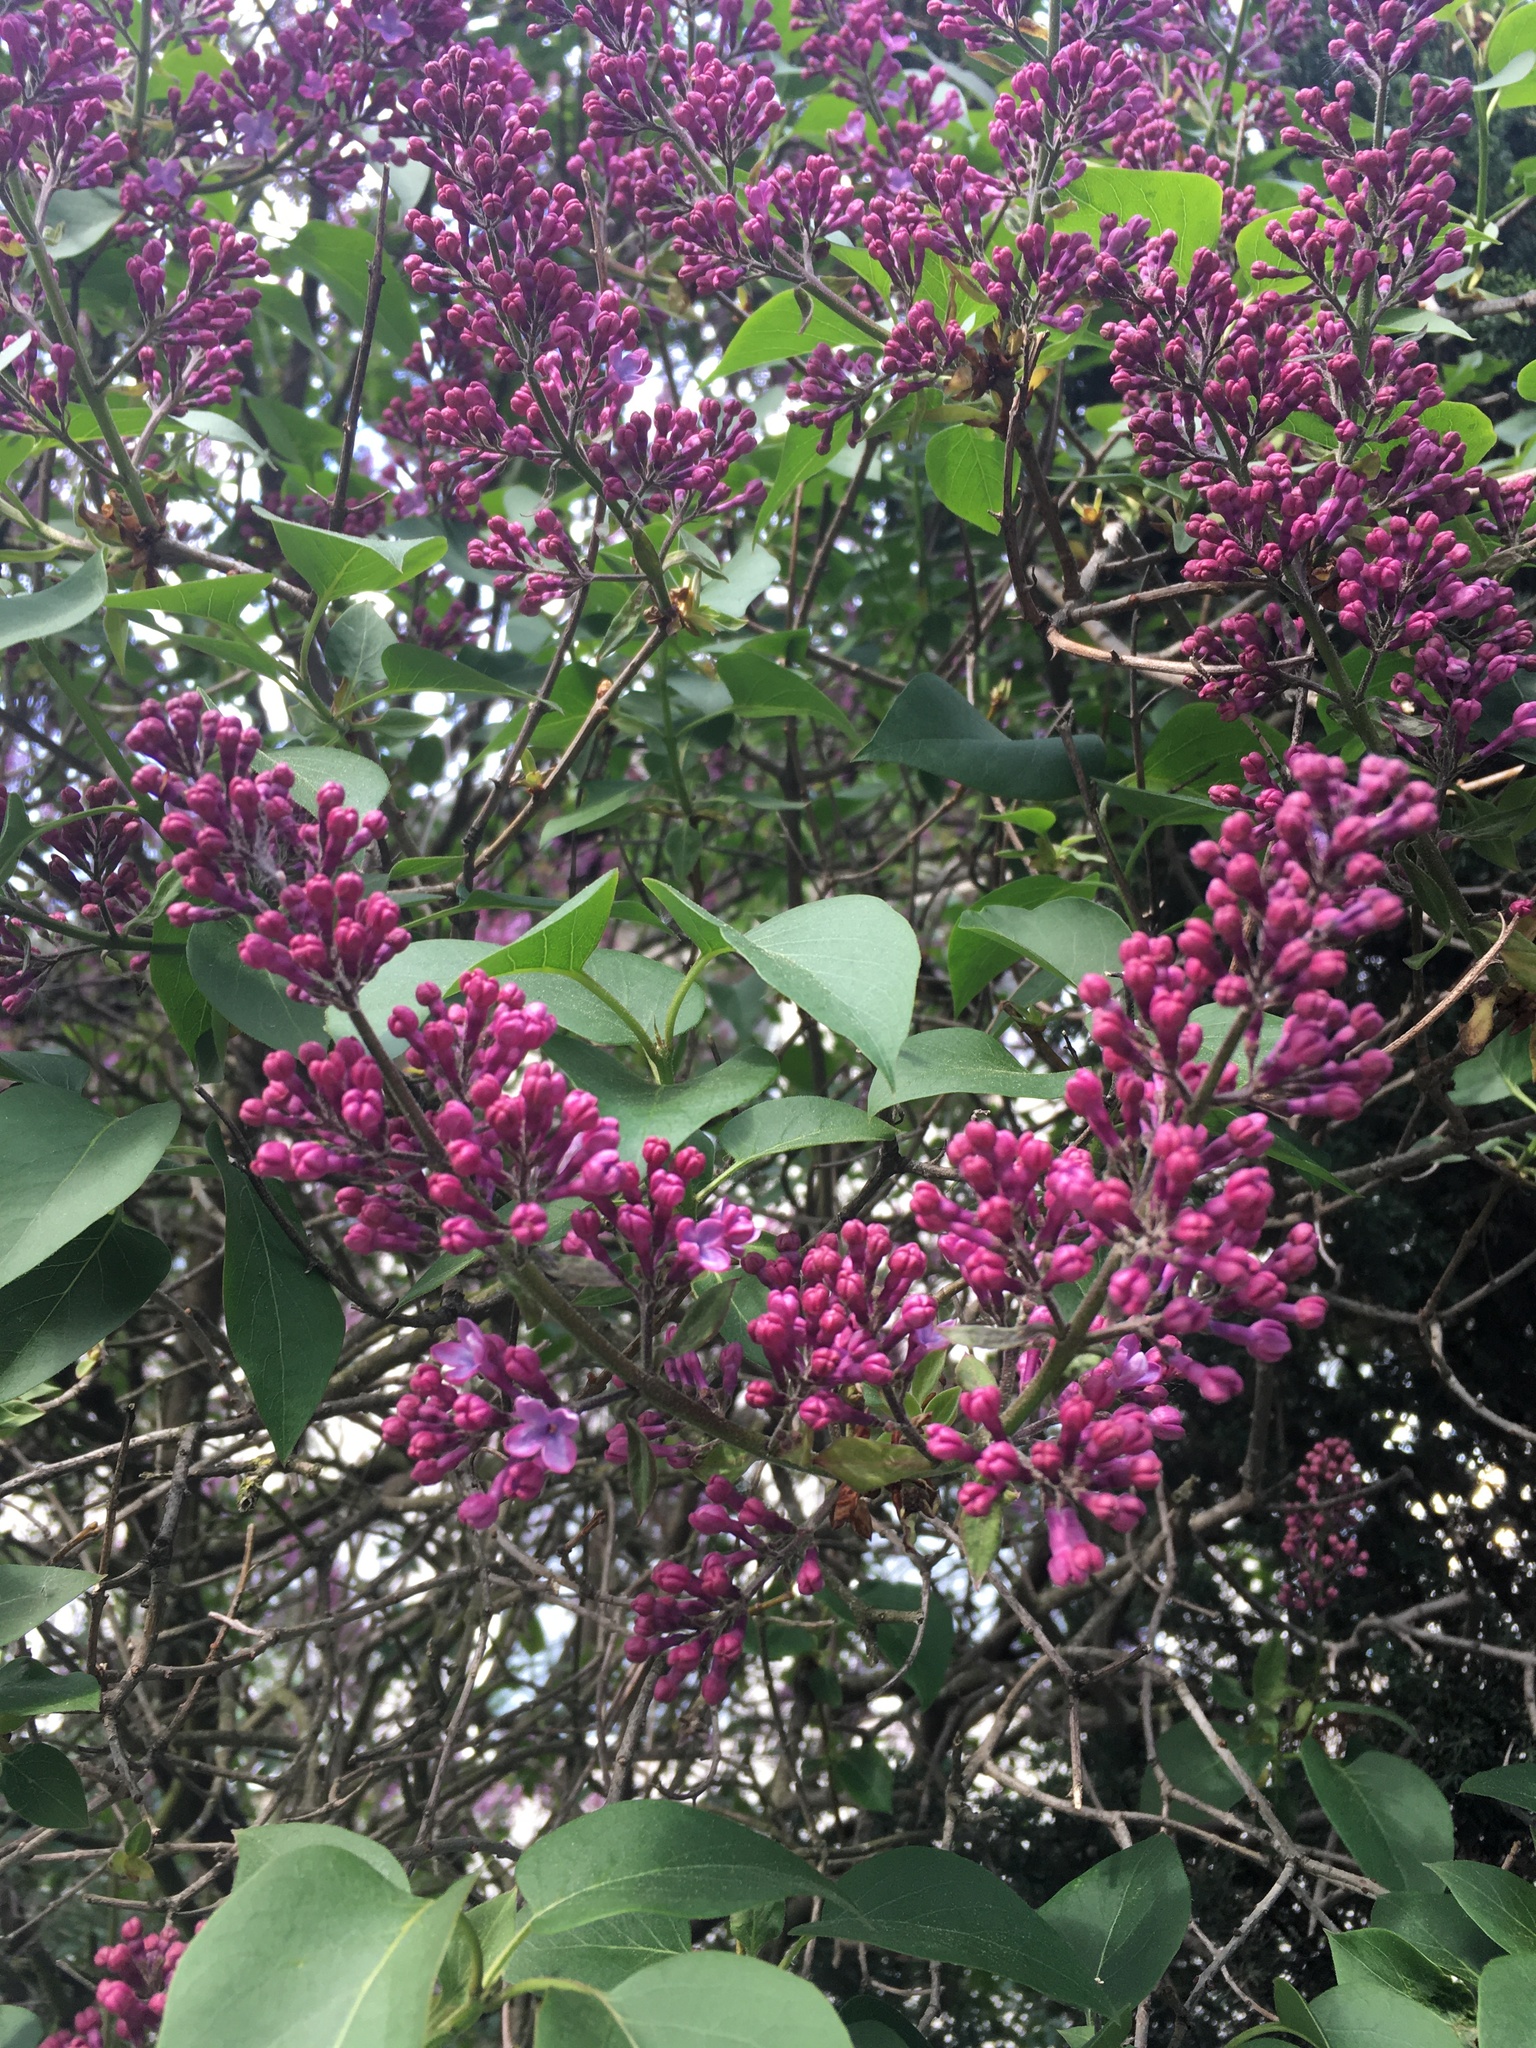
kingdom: Plantae
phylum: Tracheophyta
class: Magnoliopsida
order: Lamiales
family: Oleaceae
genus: Syringa
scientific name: Syringa vulgaris
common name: Common lilac
